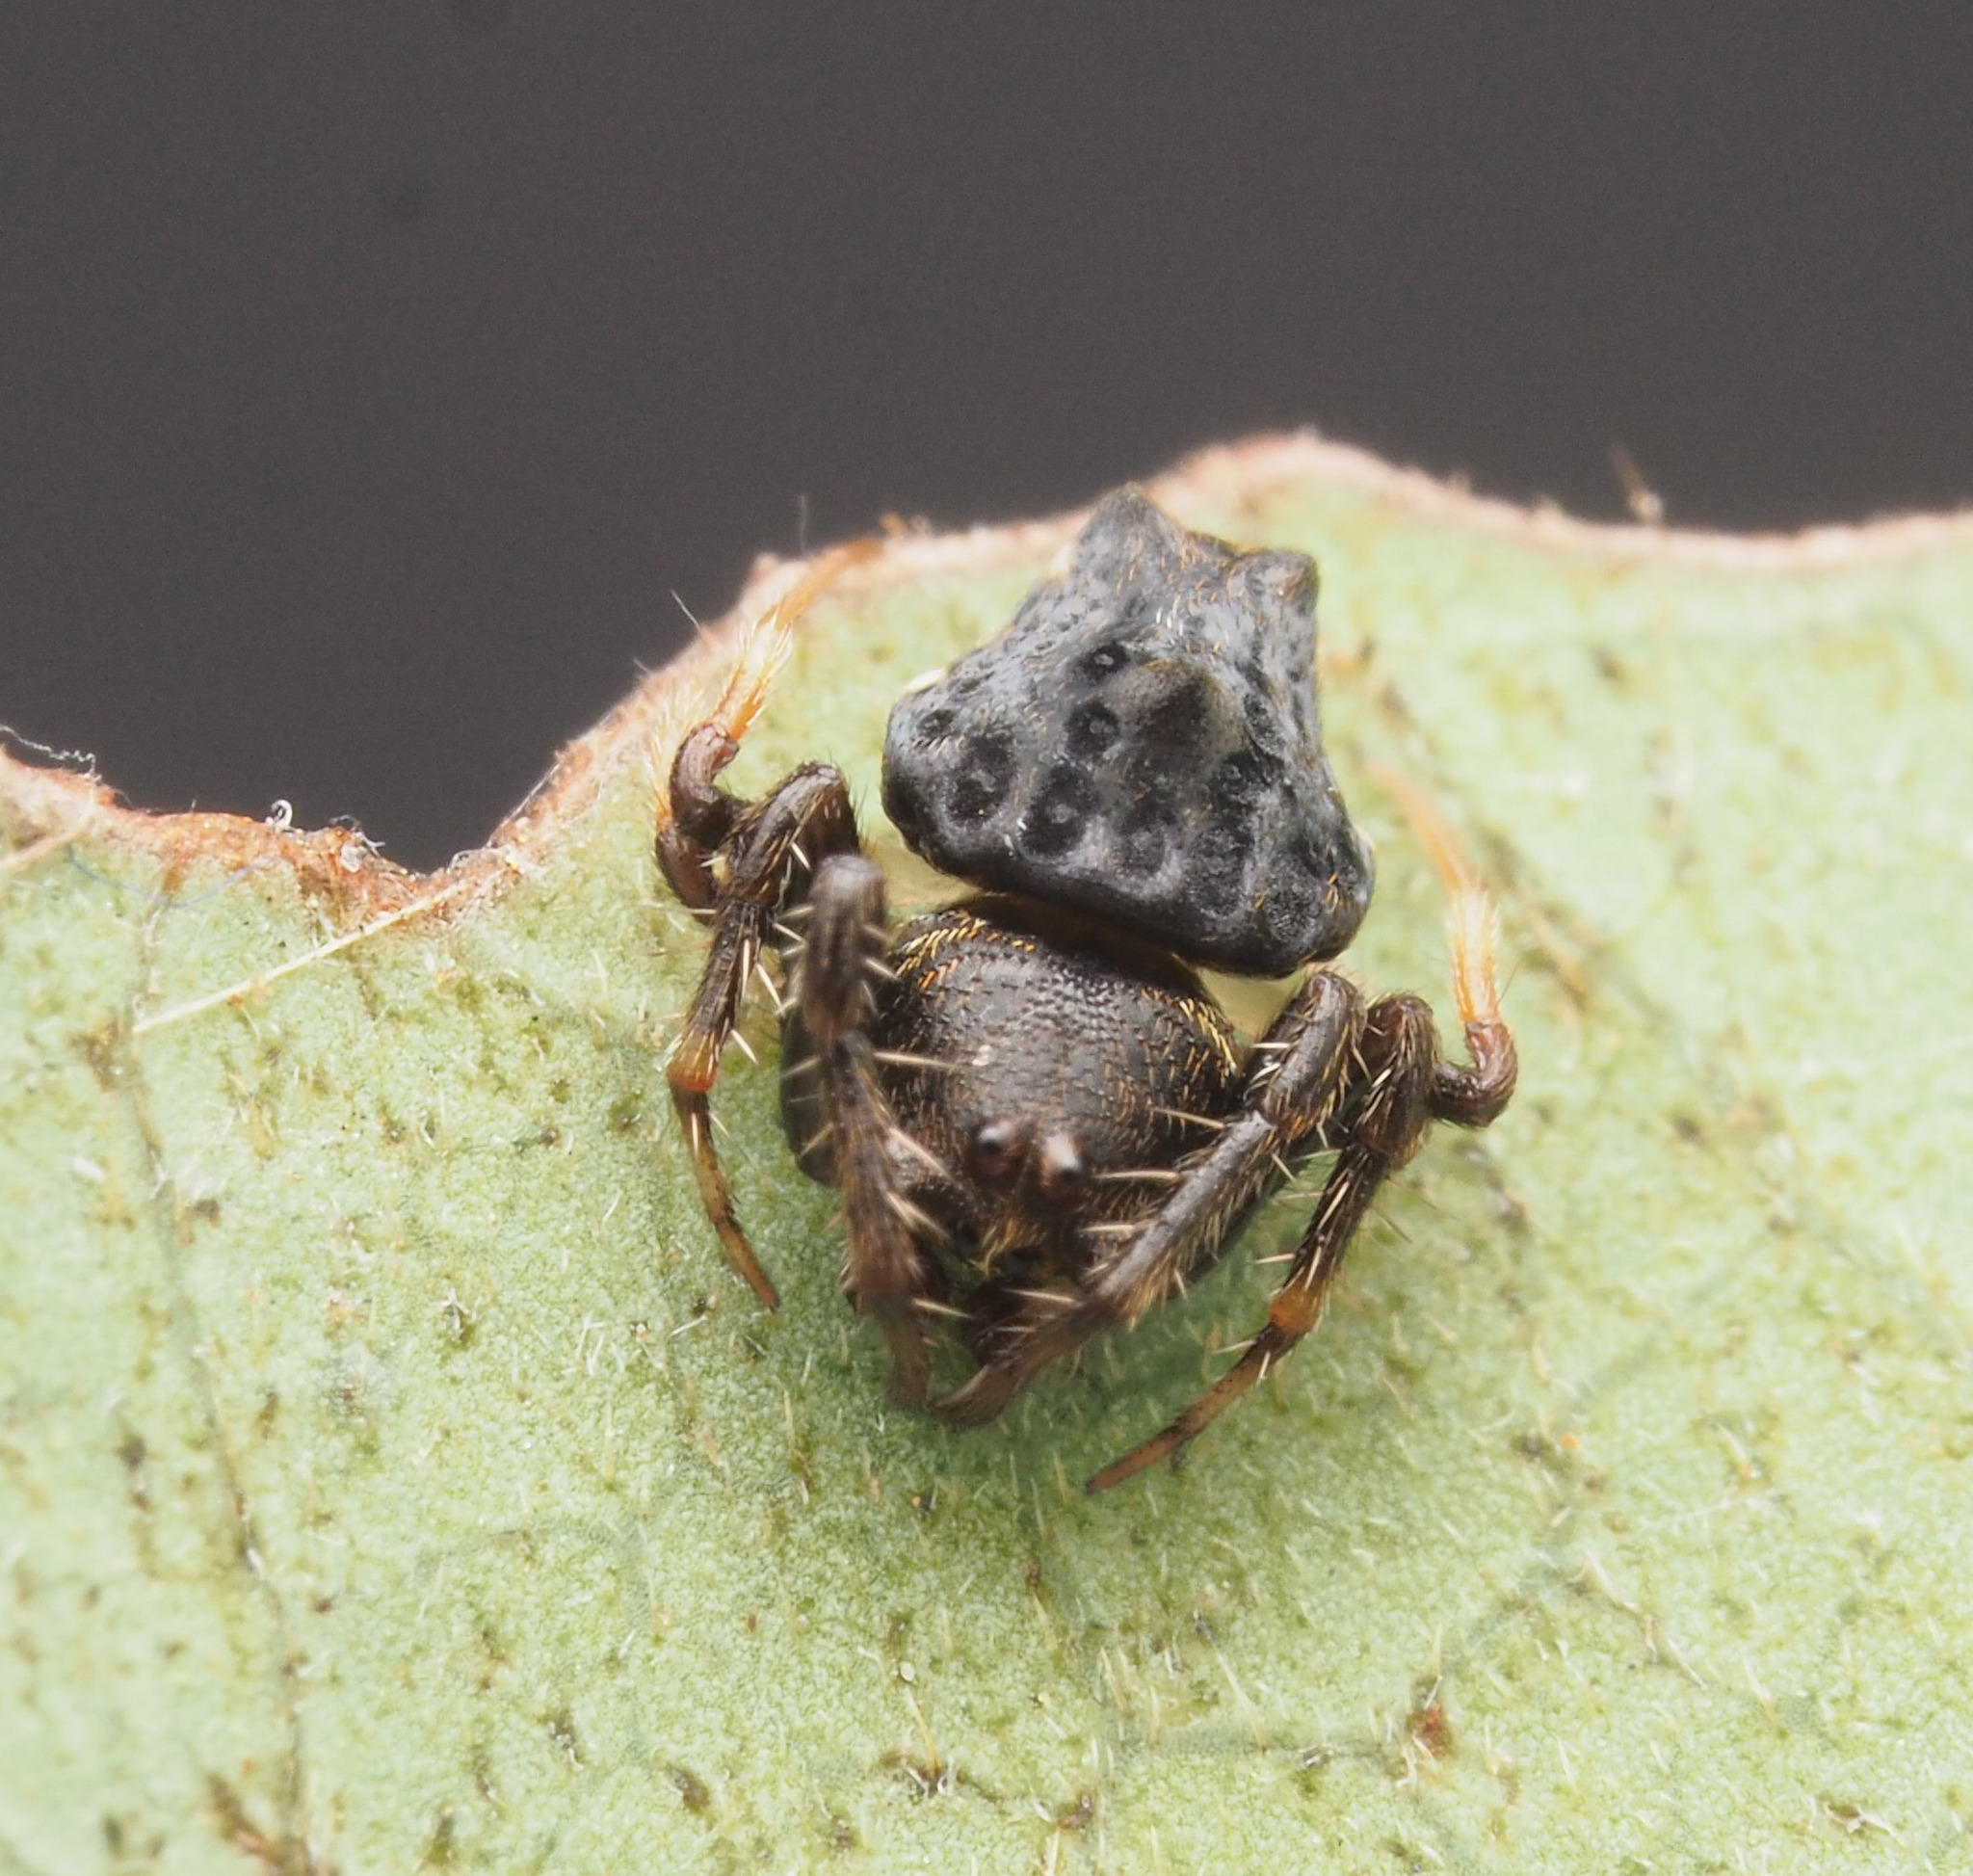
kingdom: Animalia
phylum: Arthropoda
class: Arachnida
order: Araneae
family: Arkyidae
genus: Arkys
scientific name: Arkys
